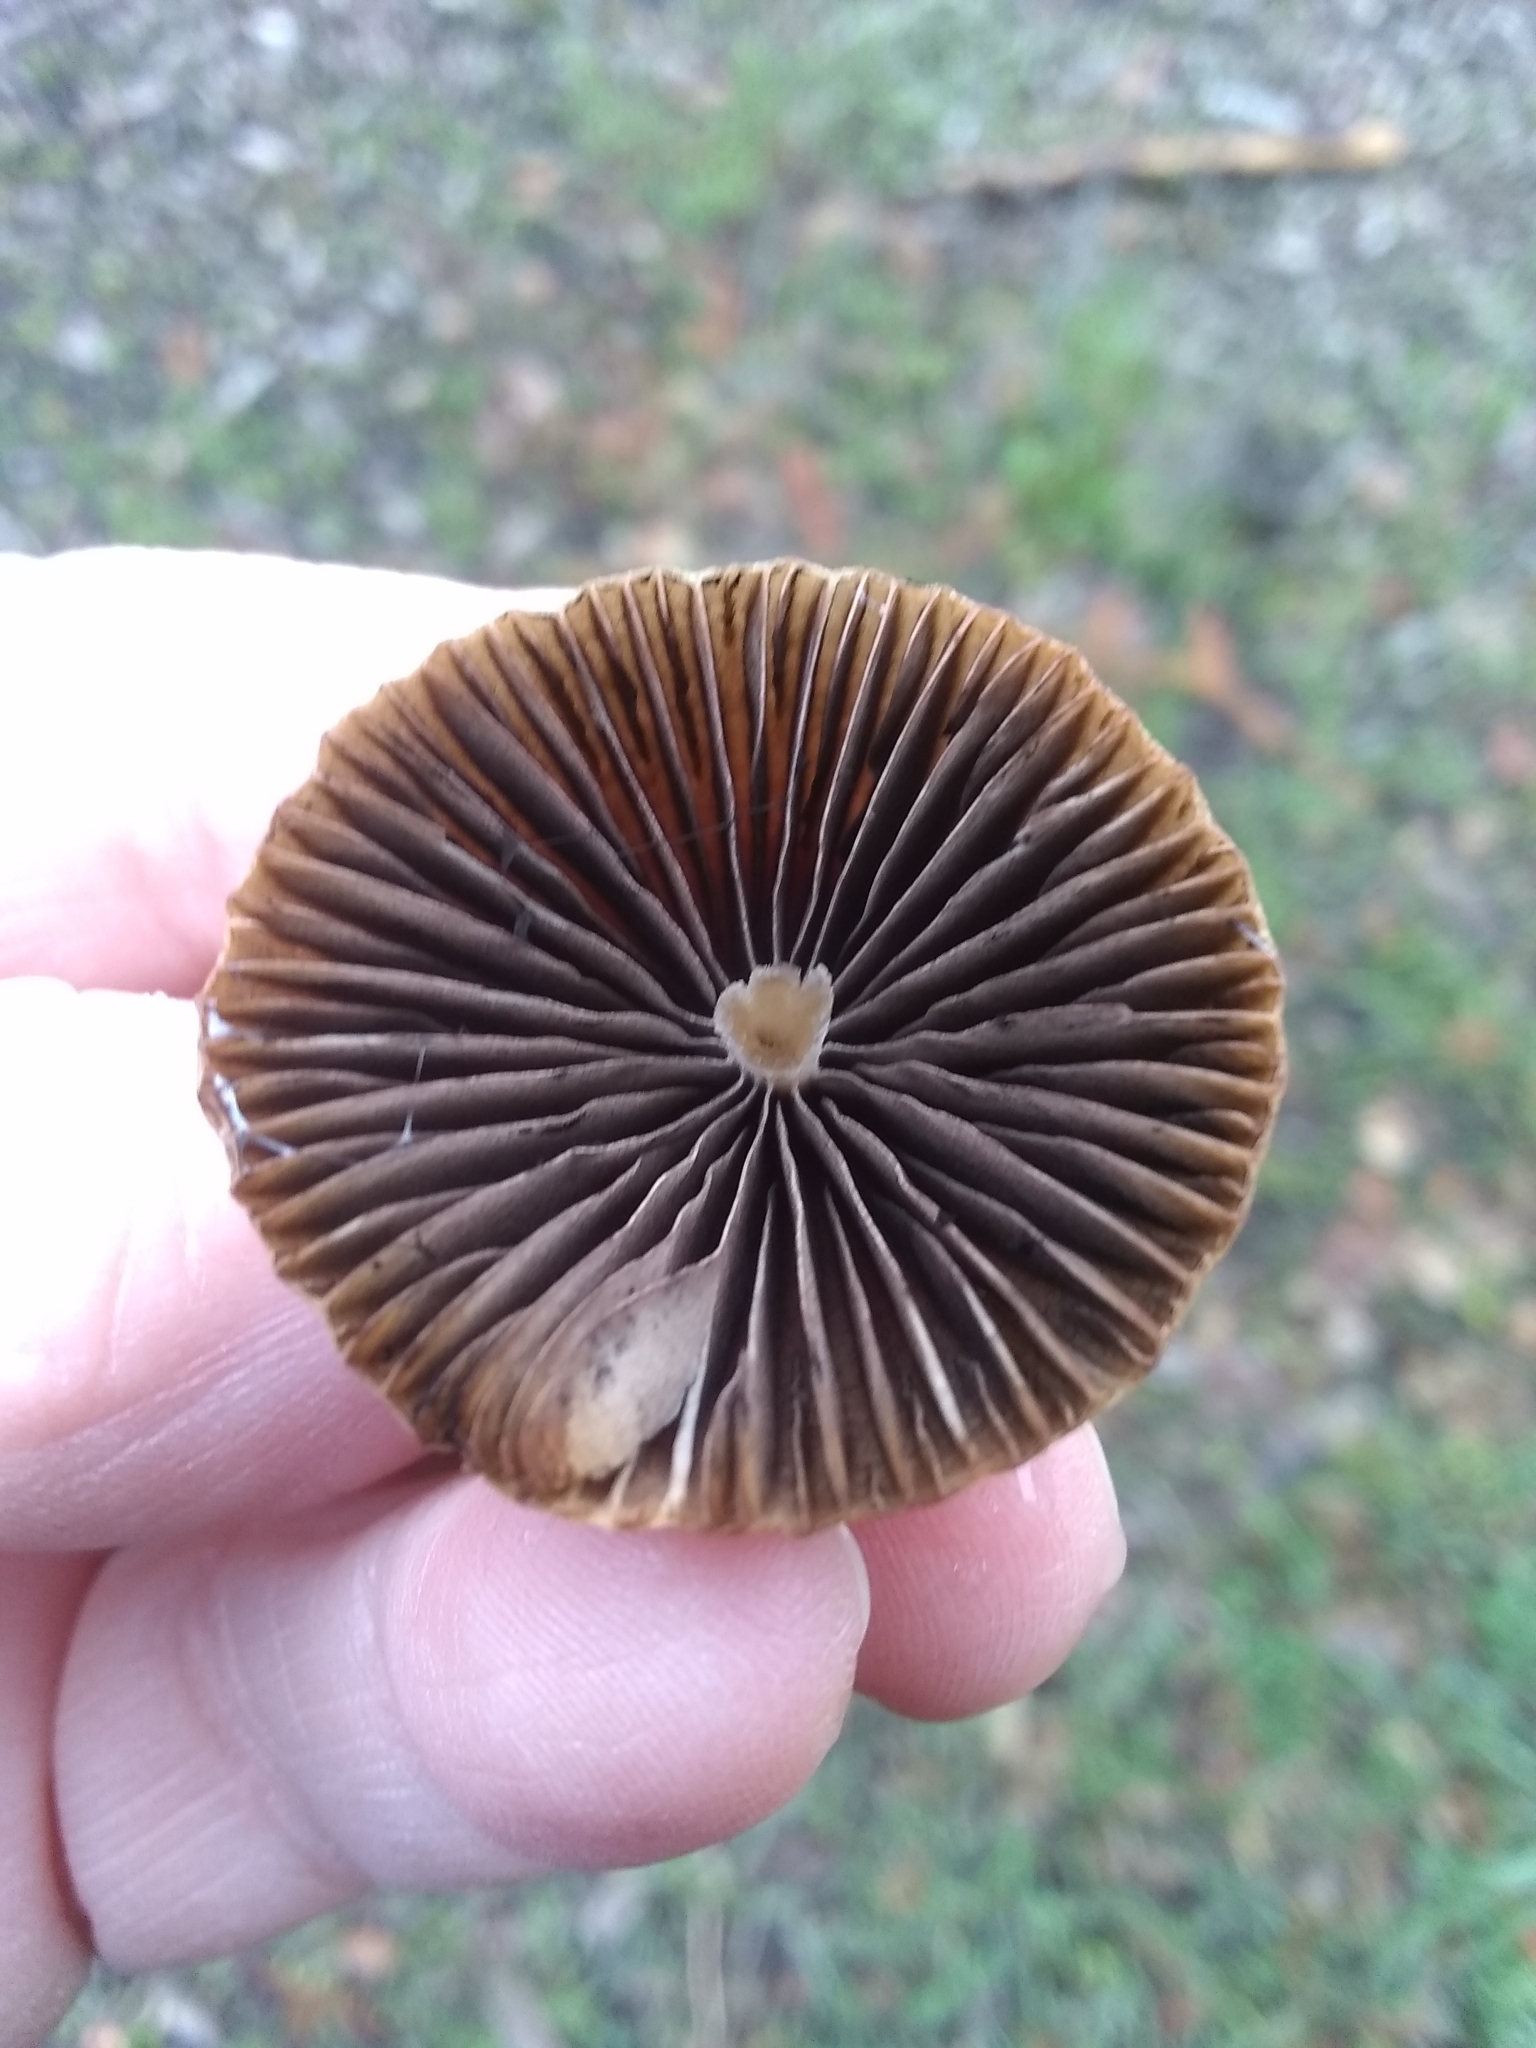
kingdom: Fungi
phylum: Basidiomycota
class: Agaricomycetes
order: Agaricales
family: Psathyrellaceae
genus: Psathyrella
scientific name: Psathyrella corrugis
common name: Red edge brittlestem
